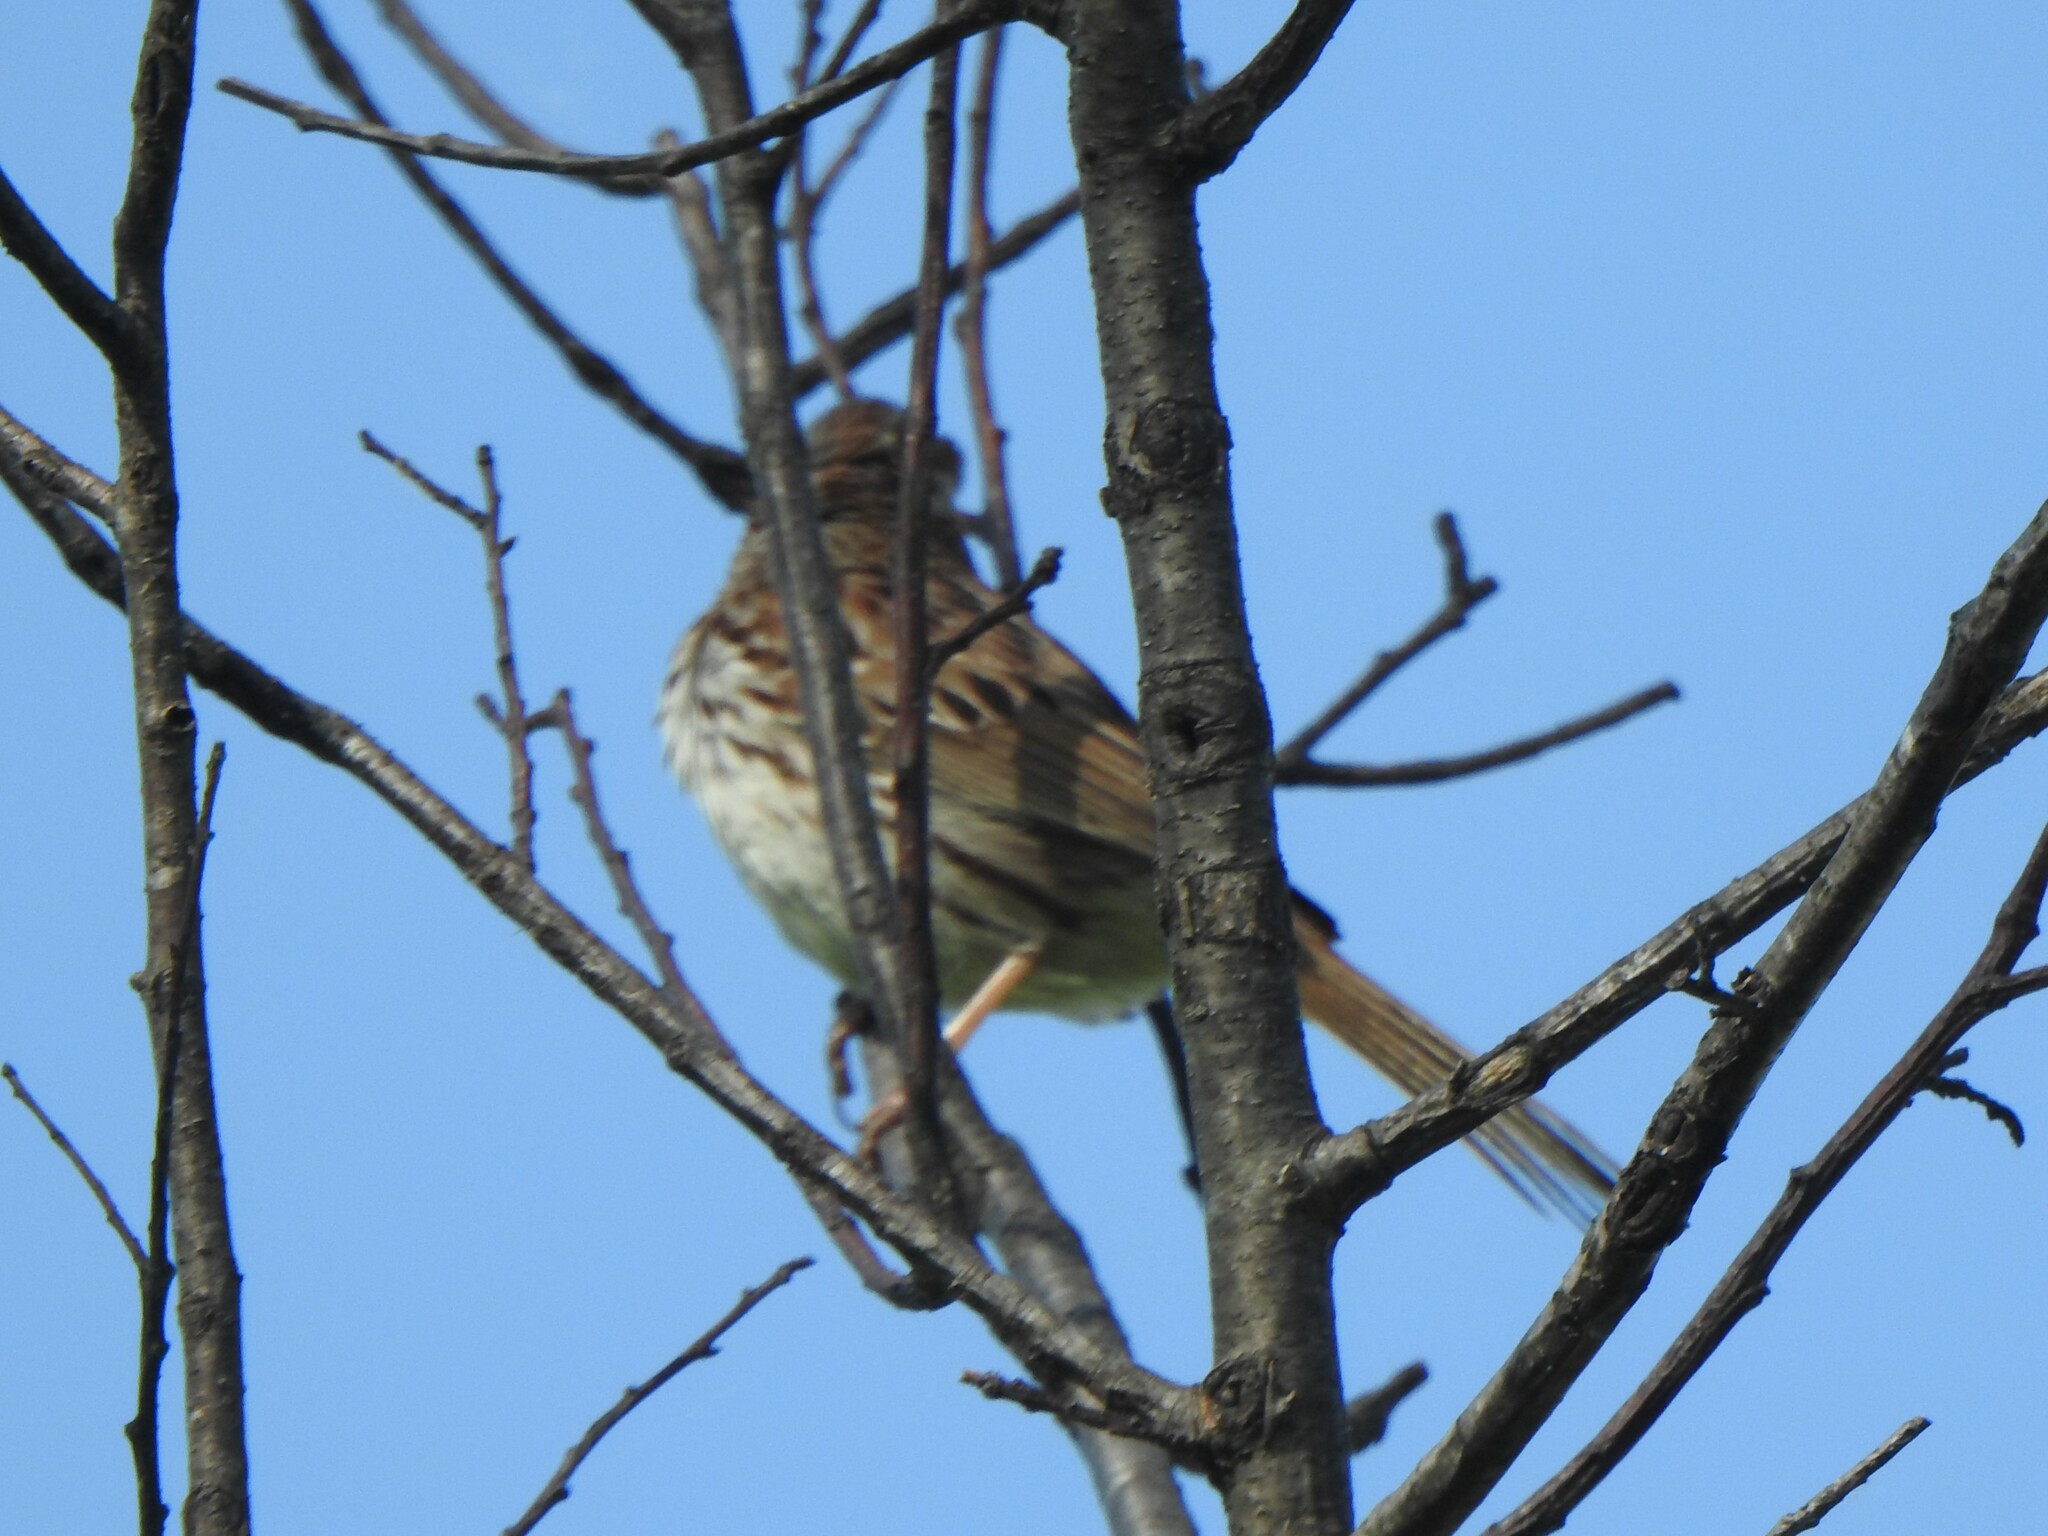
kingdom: Animalia
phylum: Chordata
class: Aves
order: Passeriformes
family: Passerellidae
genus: Melospiza
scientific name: Melospiza melodia
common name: Song sparrow
